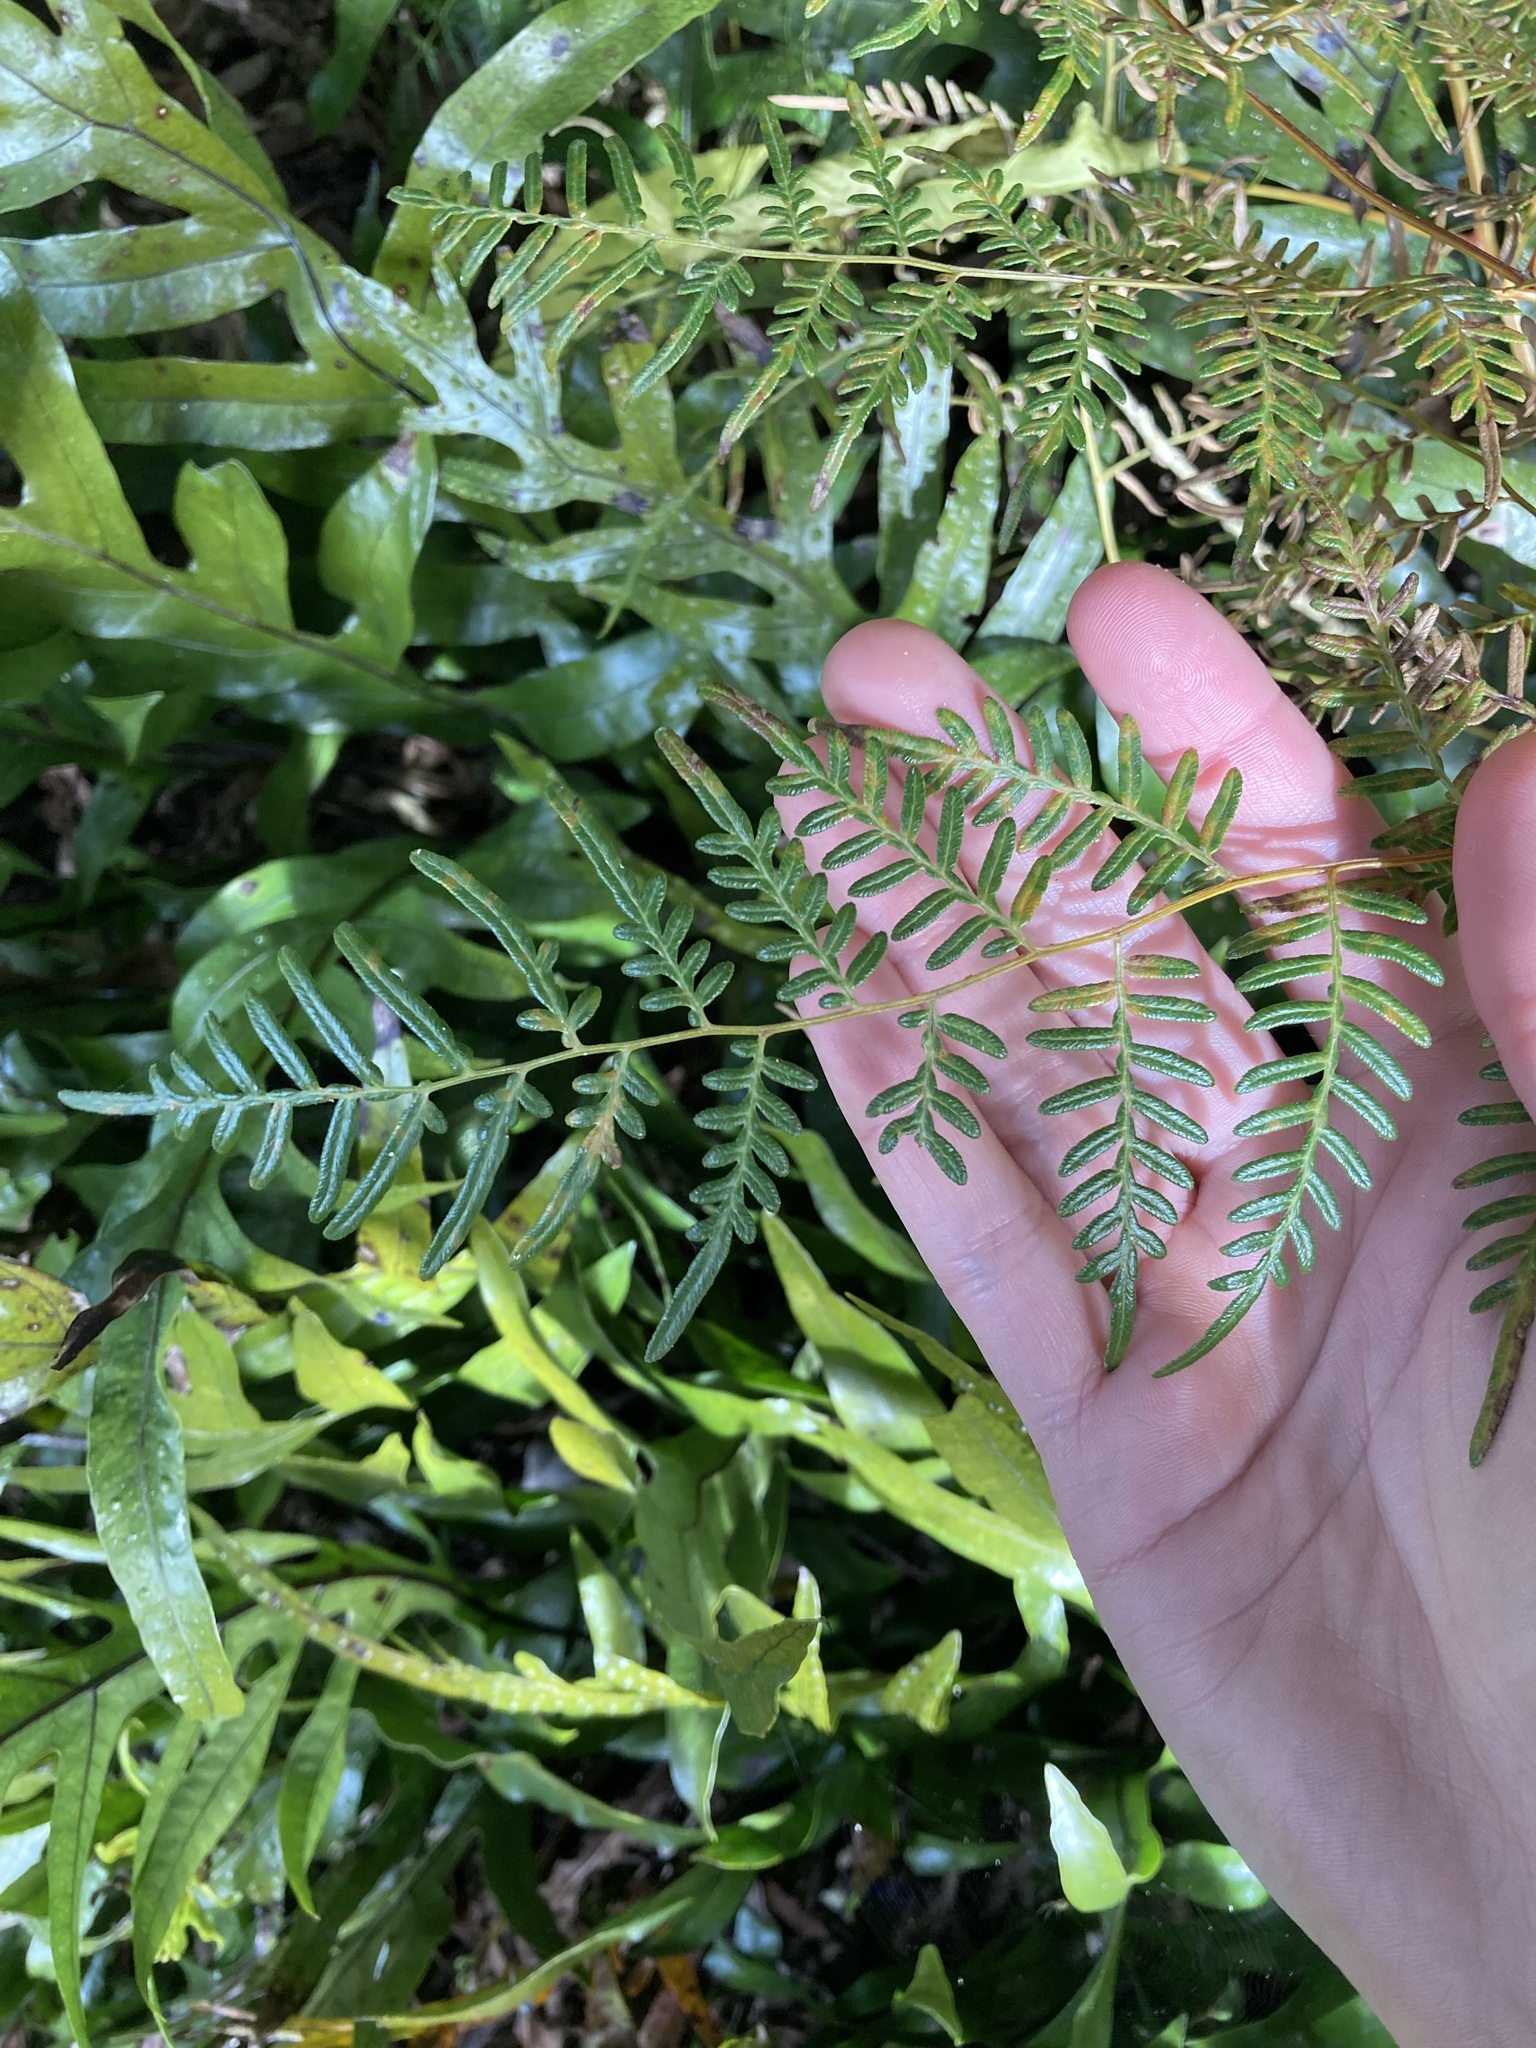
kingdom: Plantae
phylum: Tracheophyta
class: Polypodiopsida
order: Polypodiales
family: Dennstaedtiaceae
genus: Pteridium
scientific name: Pteridium esculentum
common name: Bracken fern
